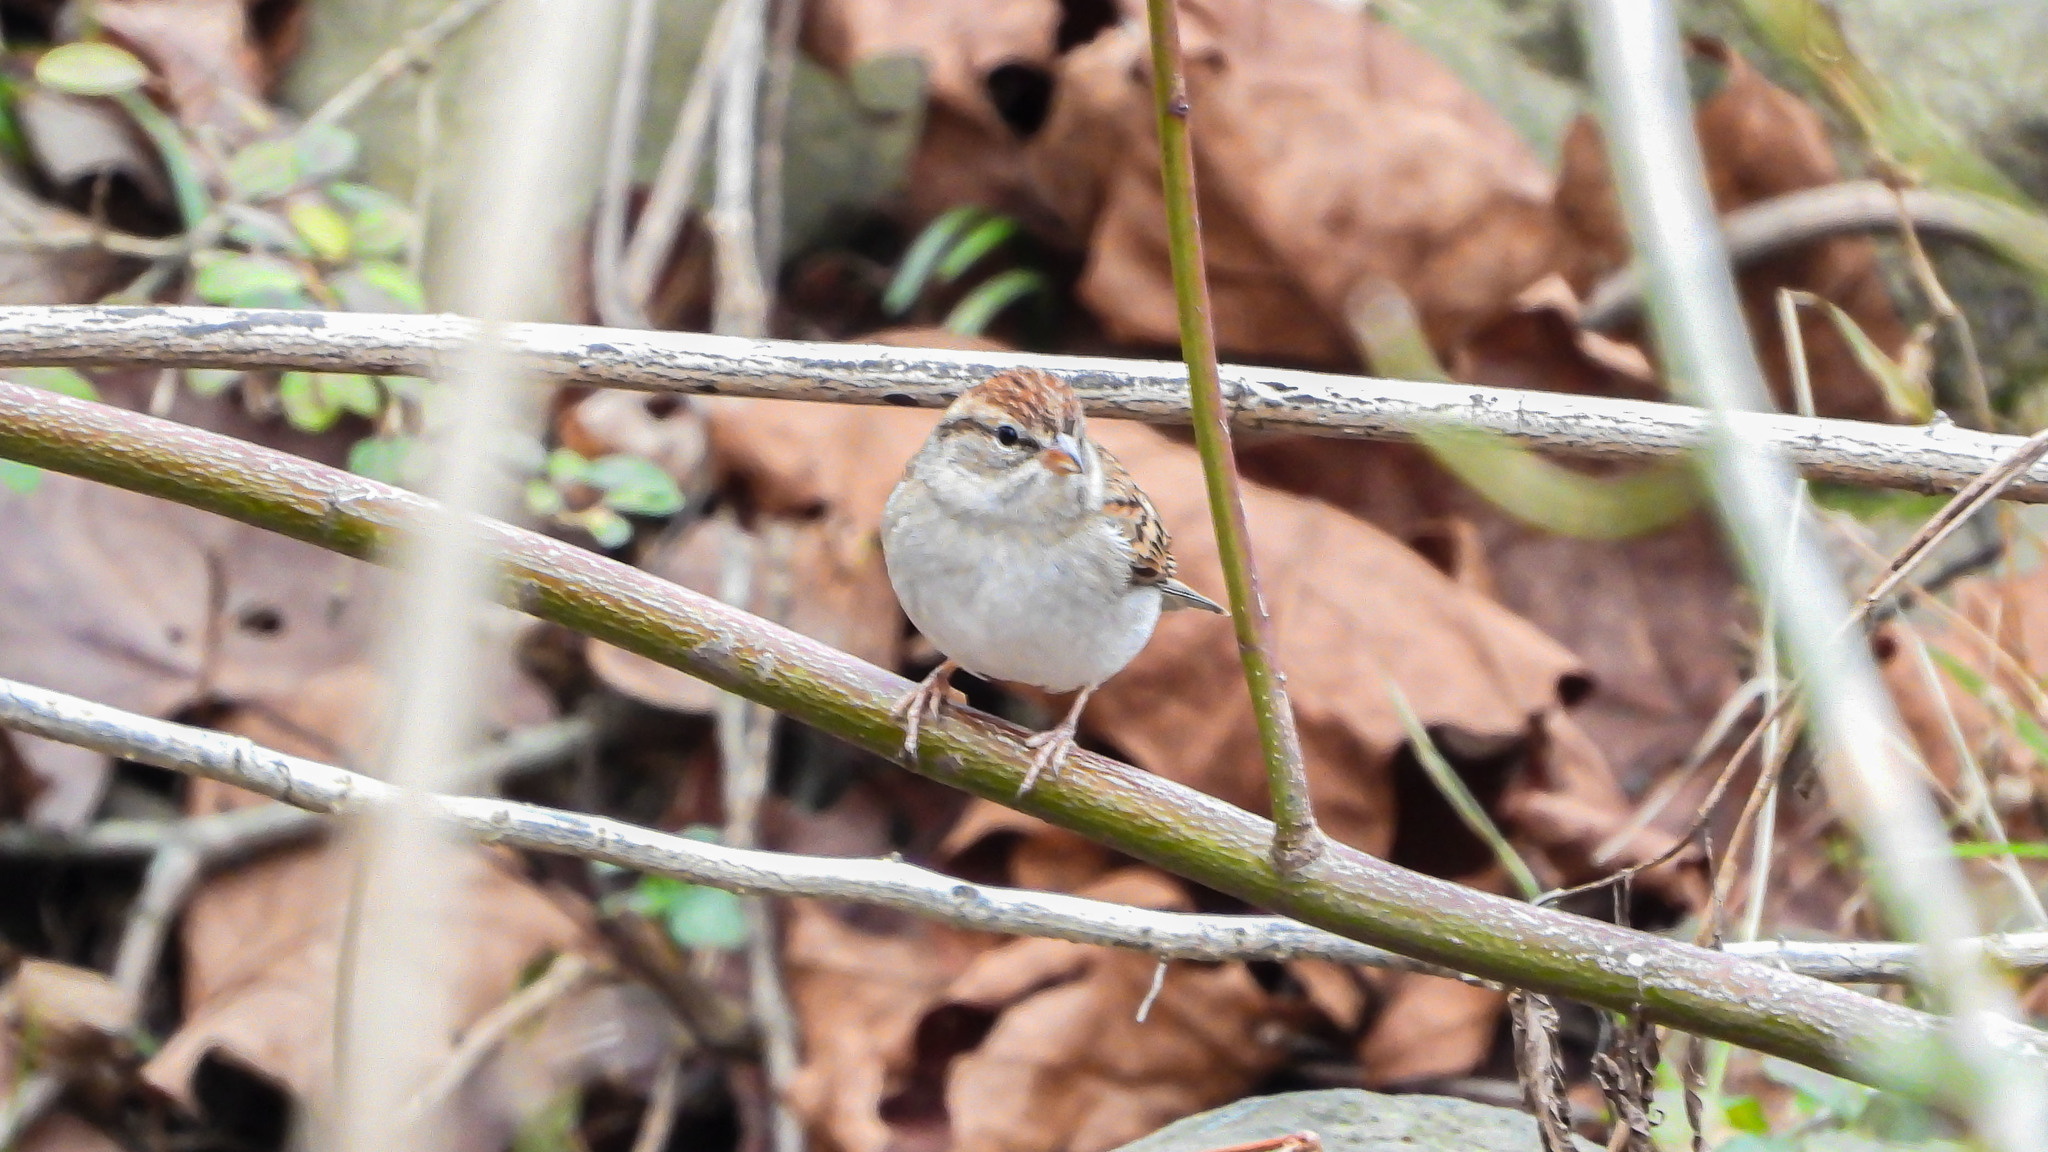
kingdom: Animalia
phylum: Chordata
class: Aves
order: Passeriformes
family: Passerellidae
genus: Spizella
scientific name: Spizella passerina
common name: Chipping sparrow
